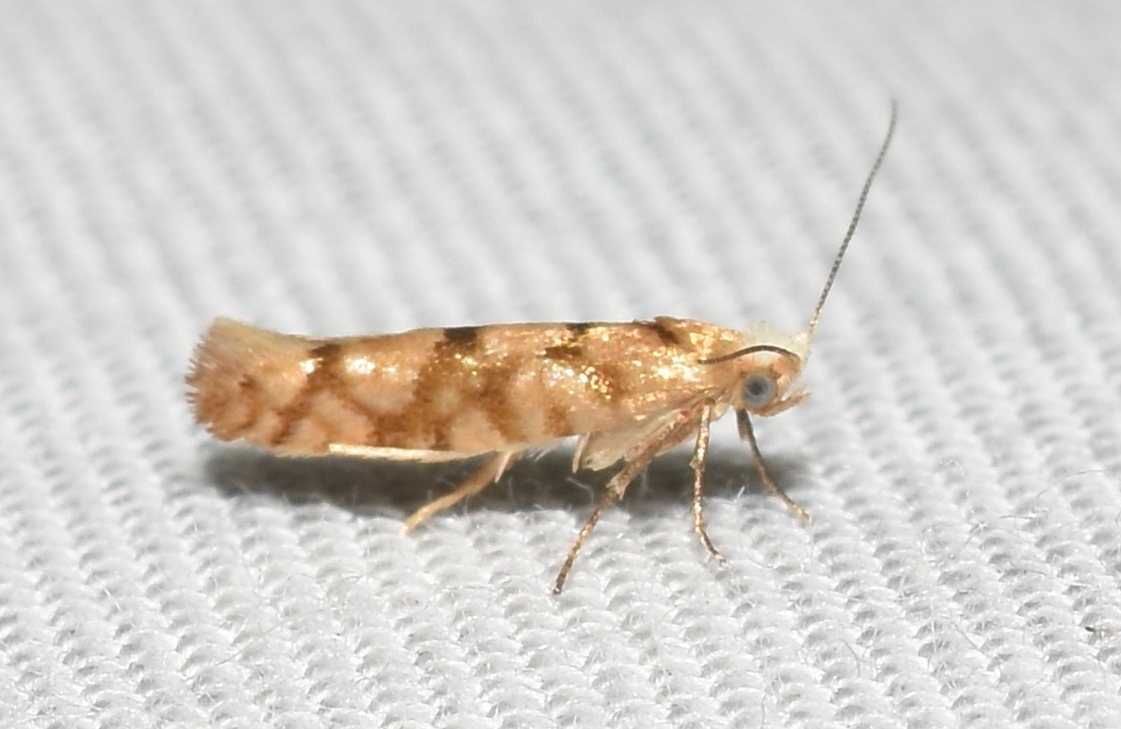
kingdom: Animalia
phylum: Arthropoda
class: Insecta
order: Lepidoptera
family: Argyresthiidae
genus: Argyresthia
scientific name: Argyresthia alternatella
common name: Juniper seed moth
